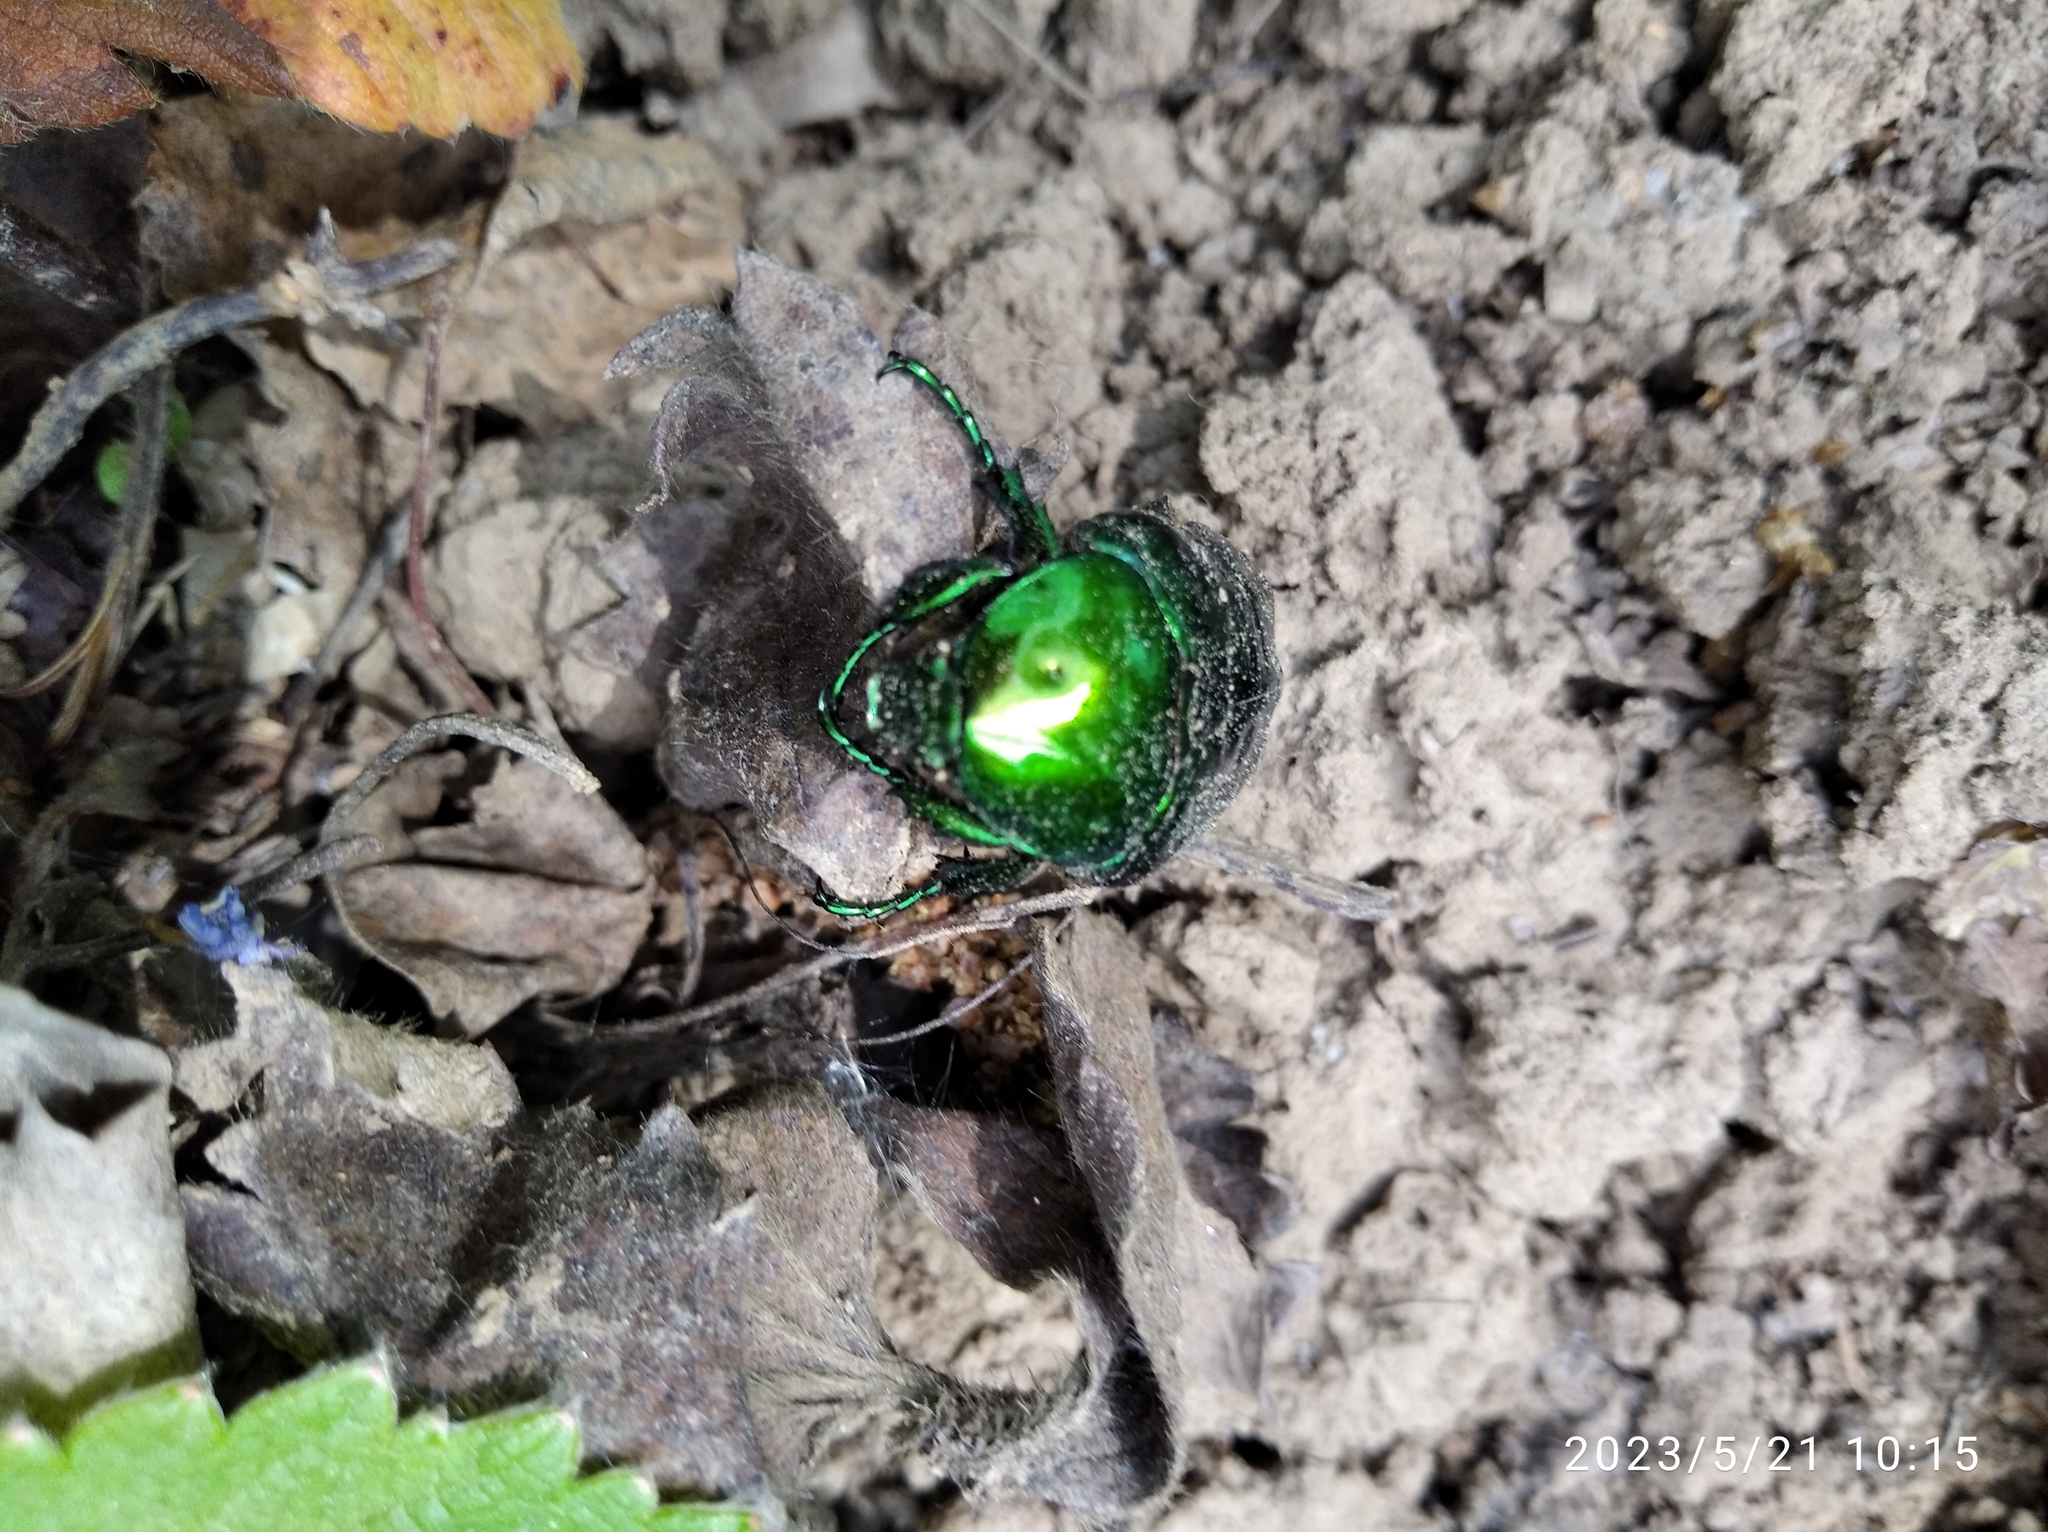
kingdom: Animalia
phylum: Arthropoda
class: Insecta
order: Coleoptera
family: Scarabaeidae
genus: Protaetia
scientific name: Protaetia speciosissima
